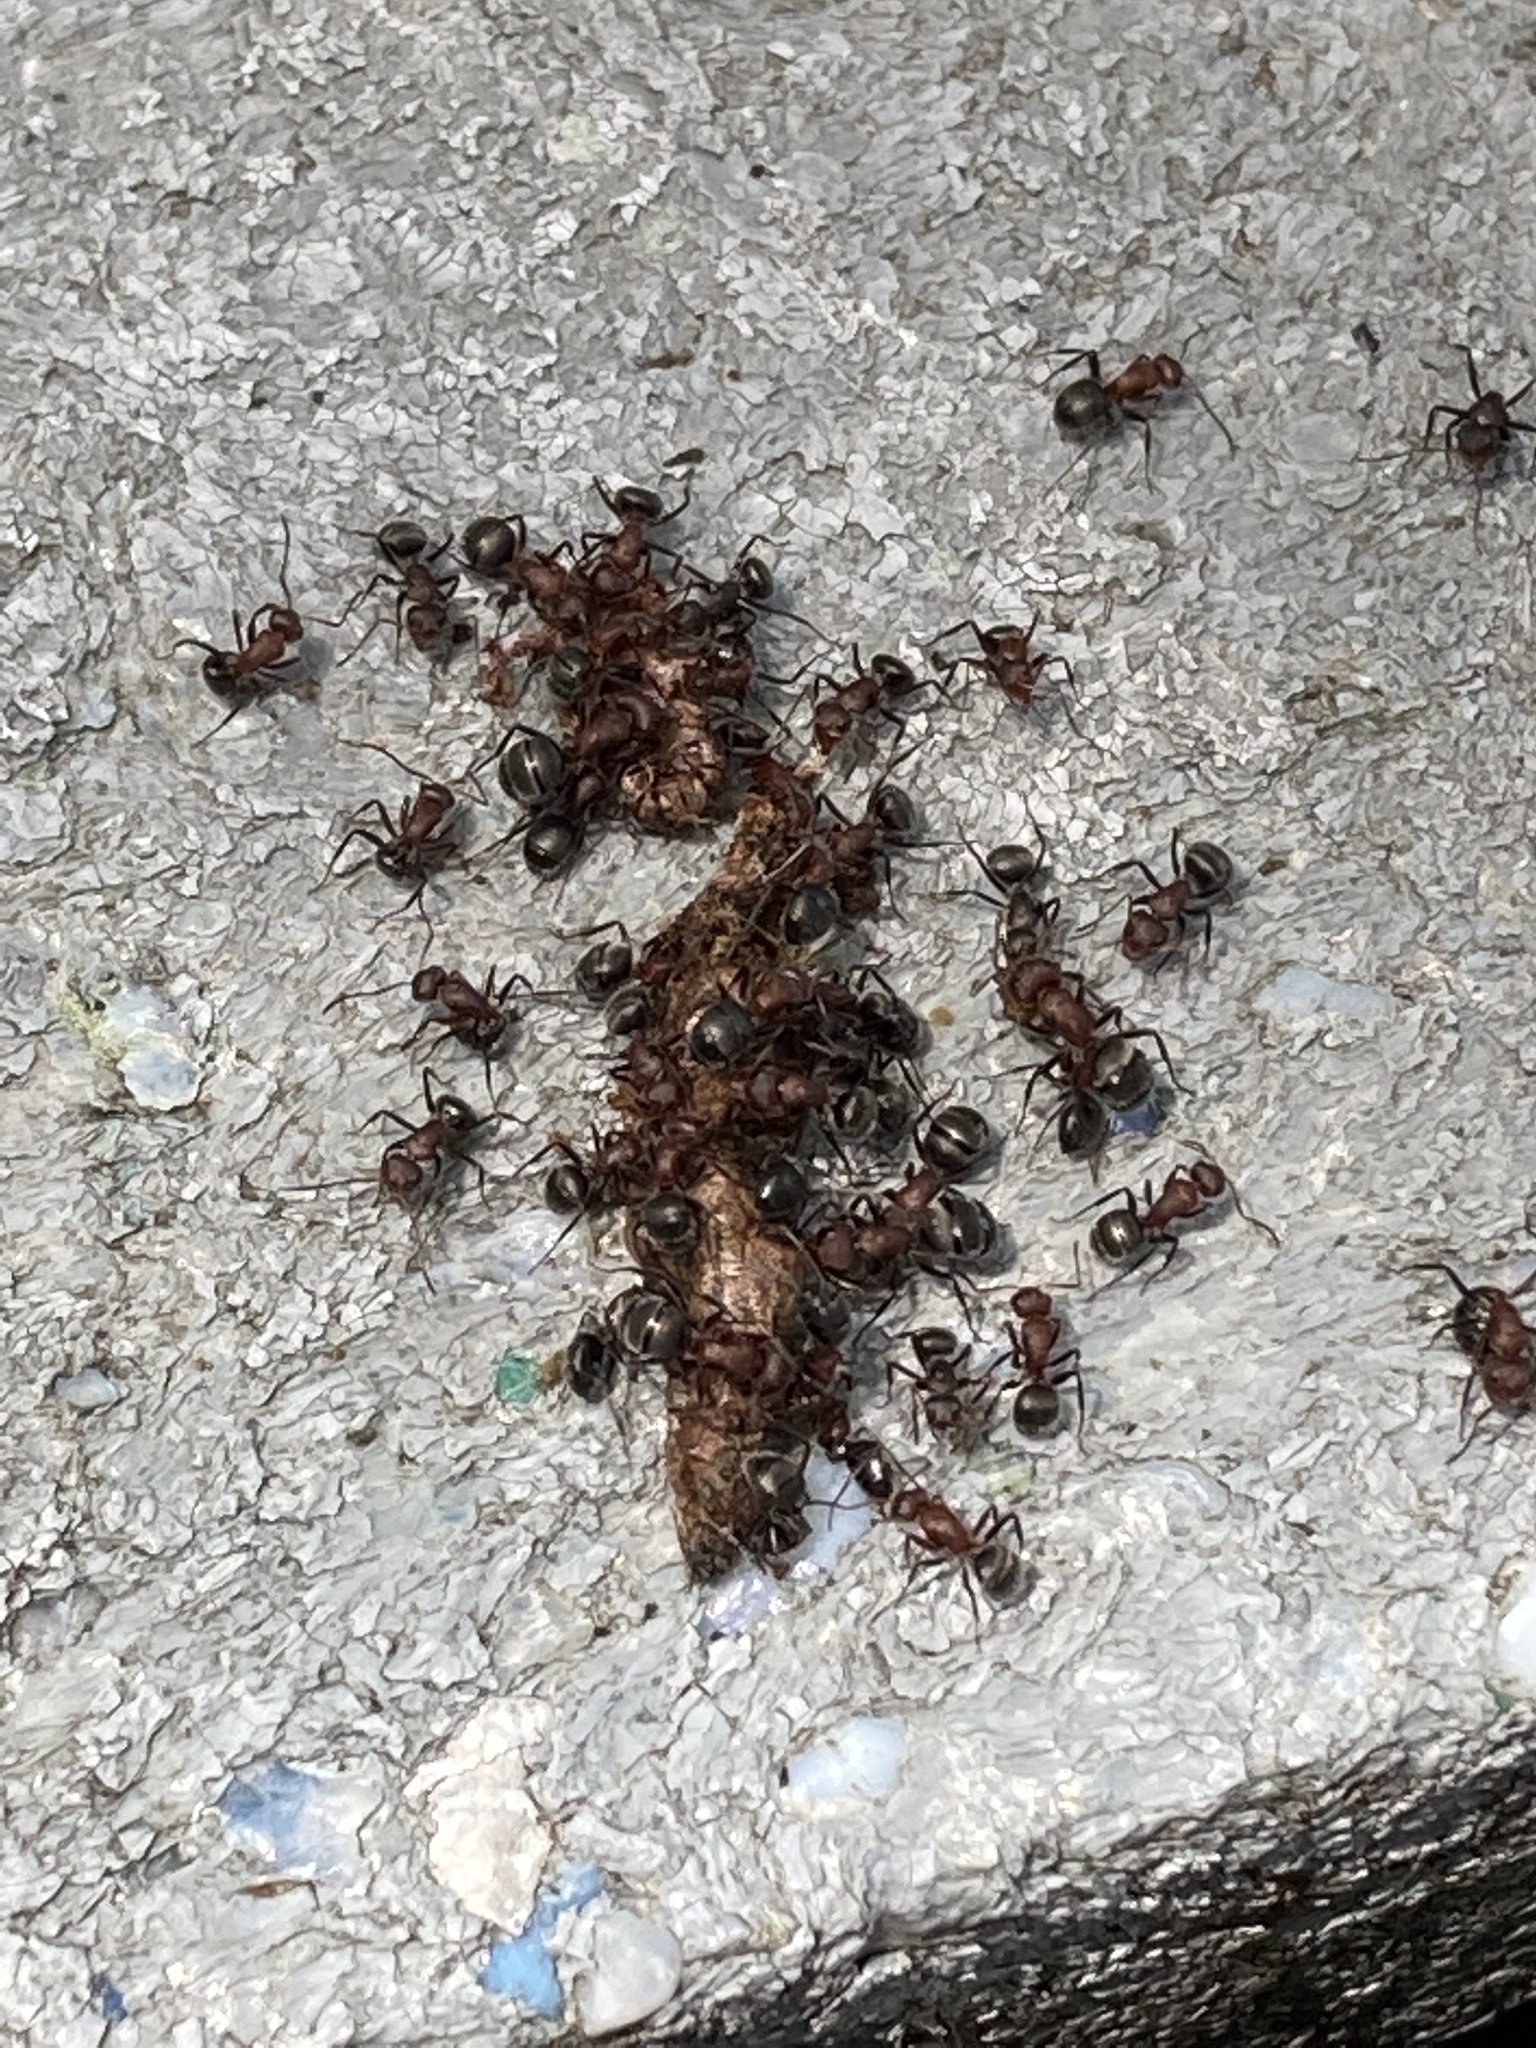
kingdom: Animalia
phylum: Arthropoda
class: Insecta
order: Hymenoptera
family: Formicidae
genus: Camponotus
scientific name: Camponotus planatus
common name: Compact carpenter ant
